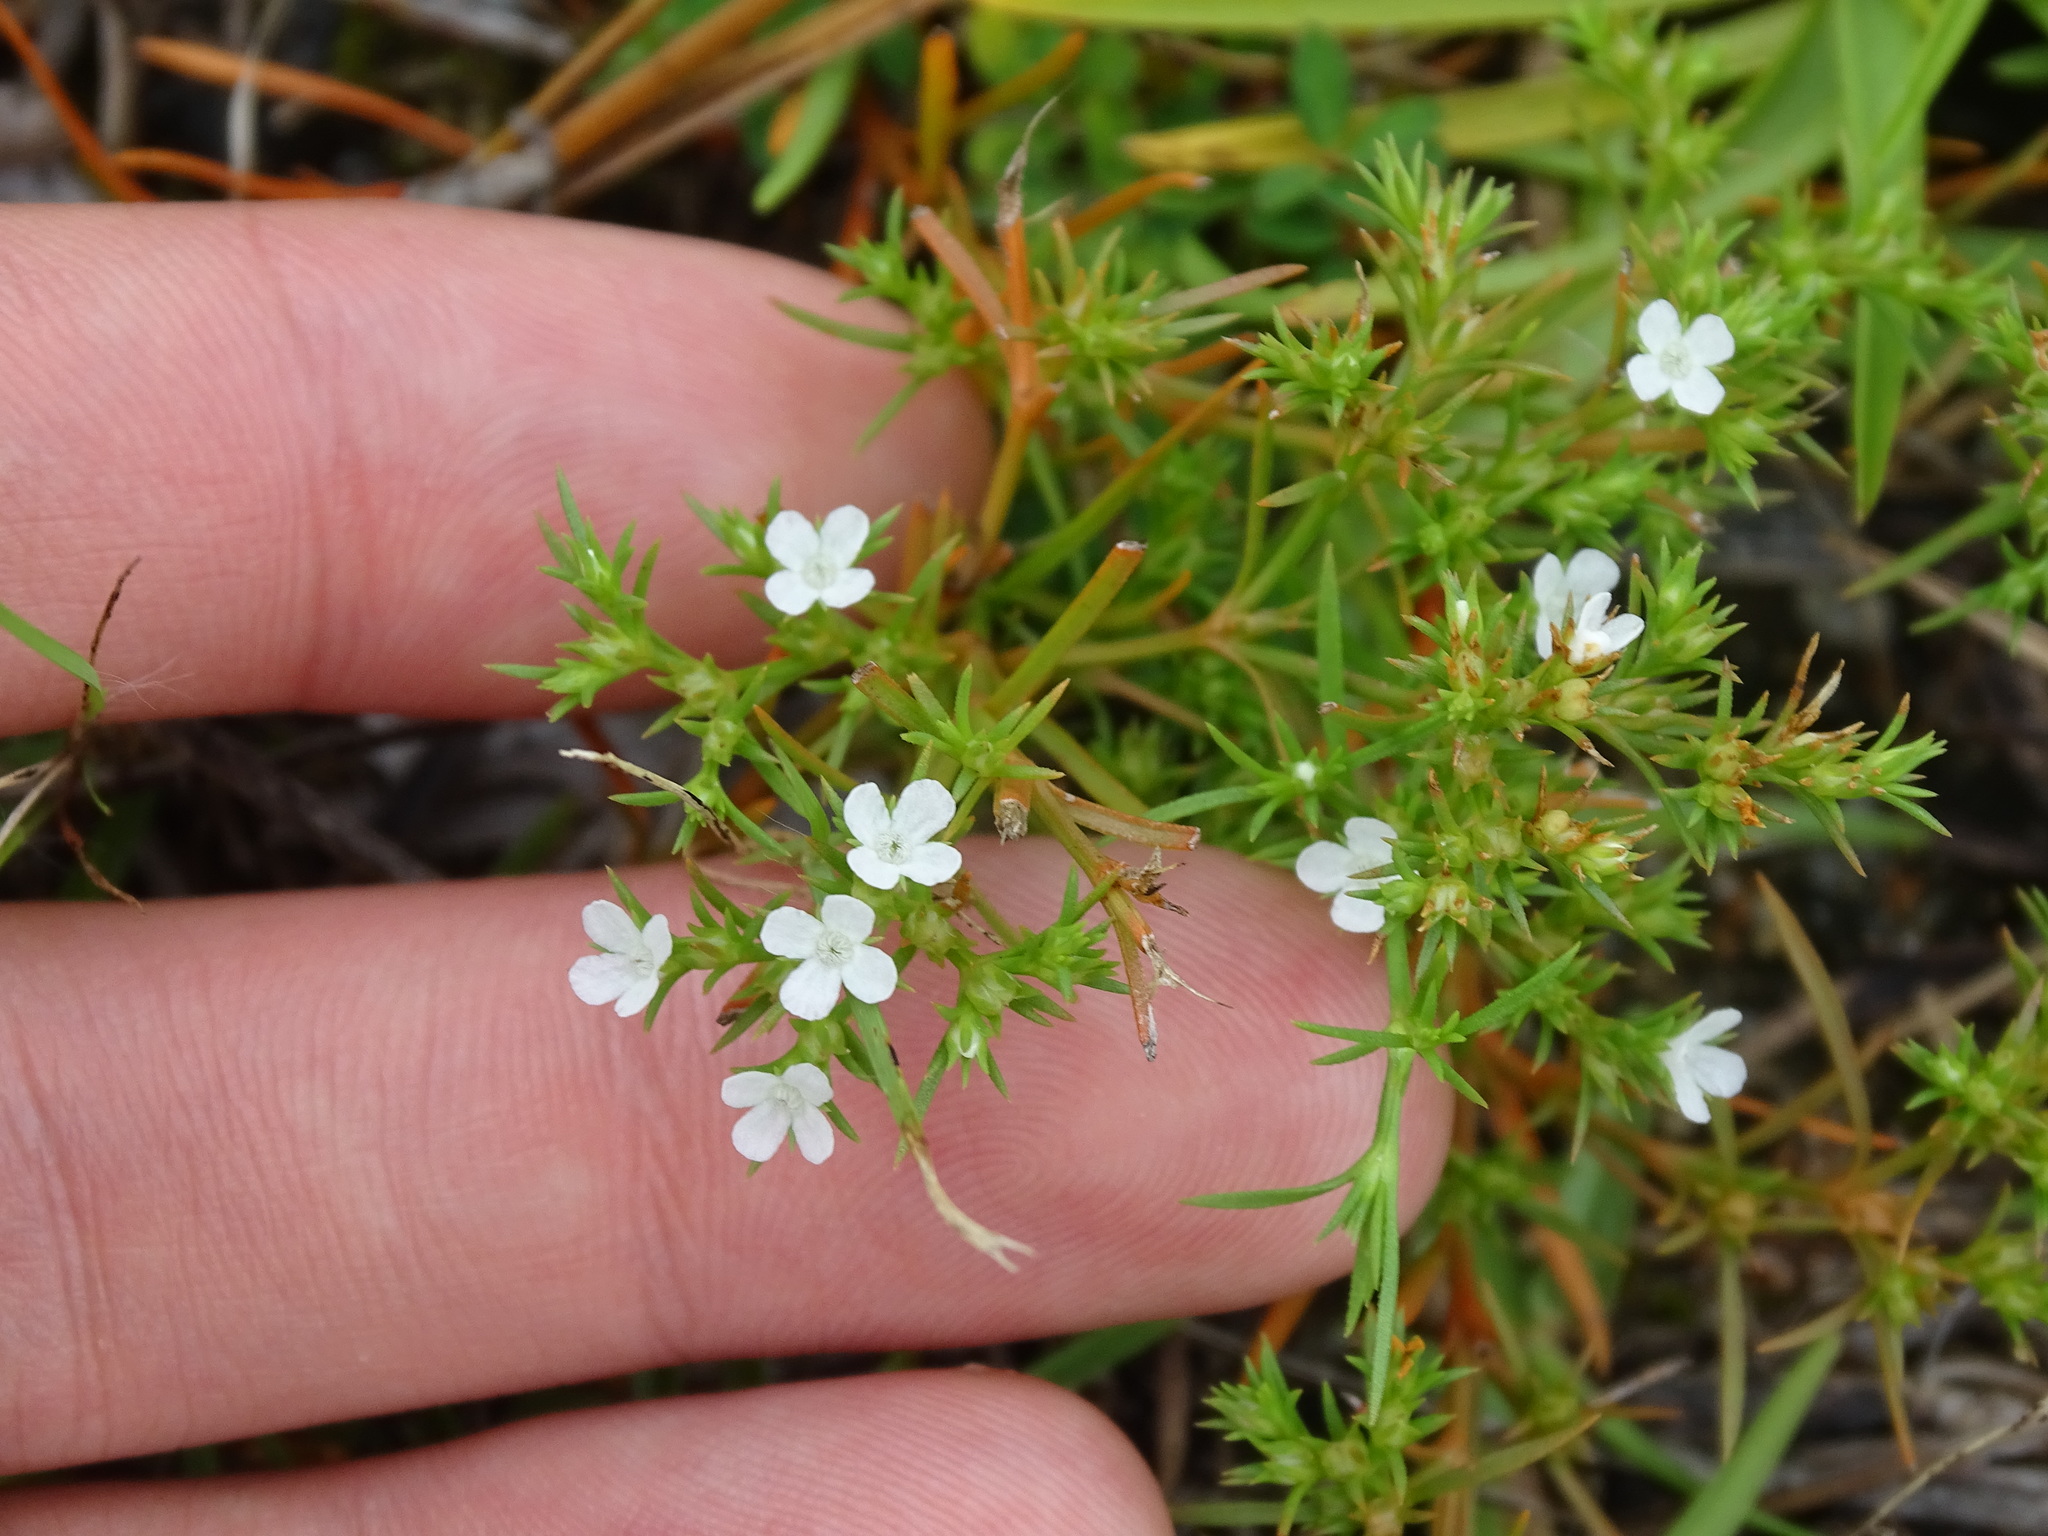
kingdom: Plantae
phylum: Tracheophyta
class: Magnoliopsida
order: Lamiales
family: Tetrachondraceae
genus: Polypremum
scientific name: Polypremum procumbens
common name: Juniper-leaf
